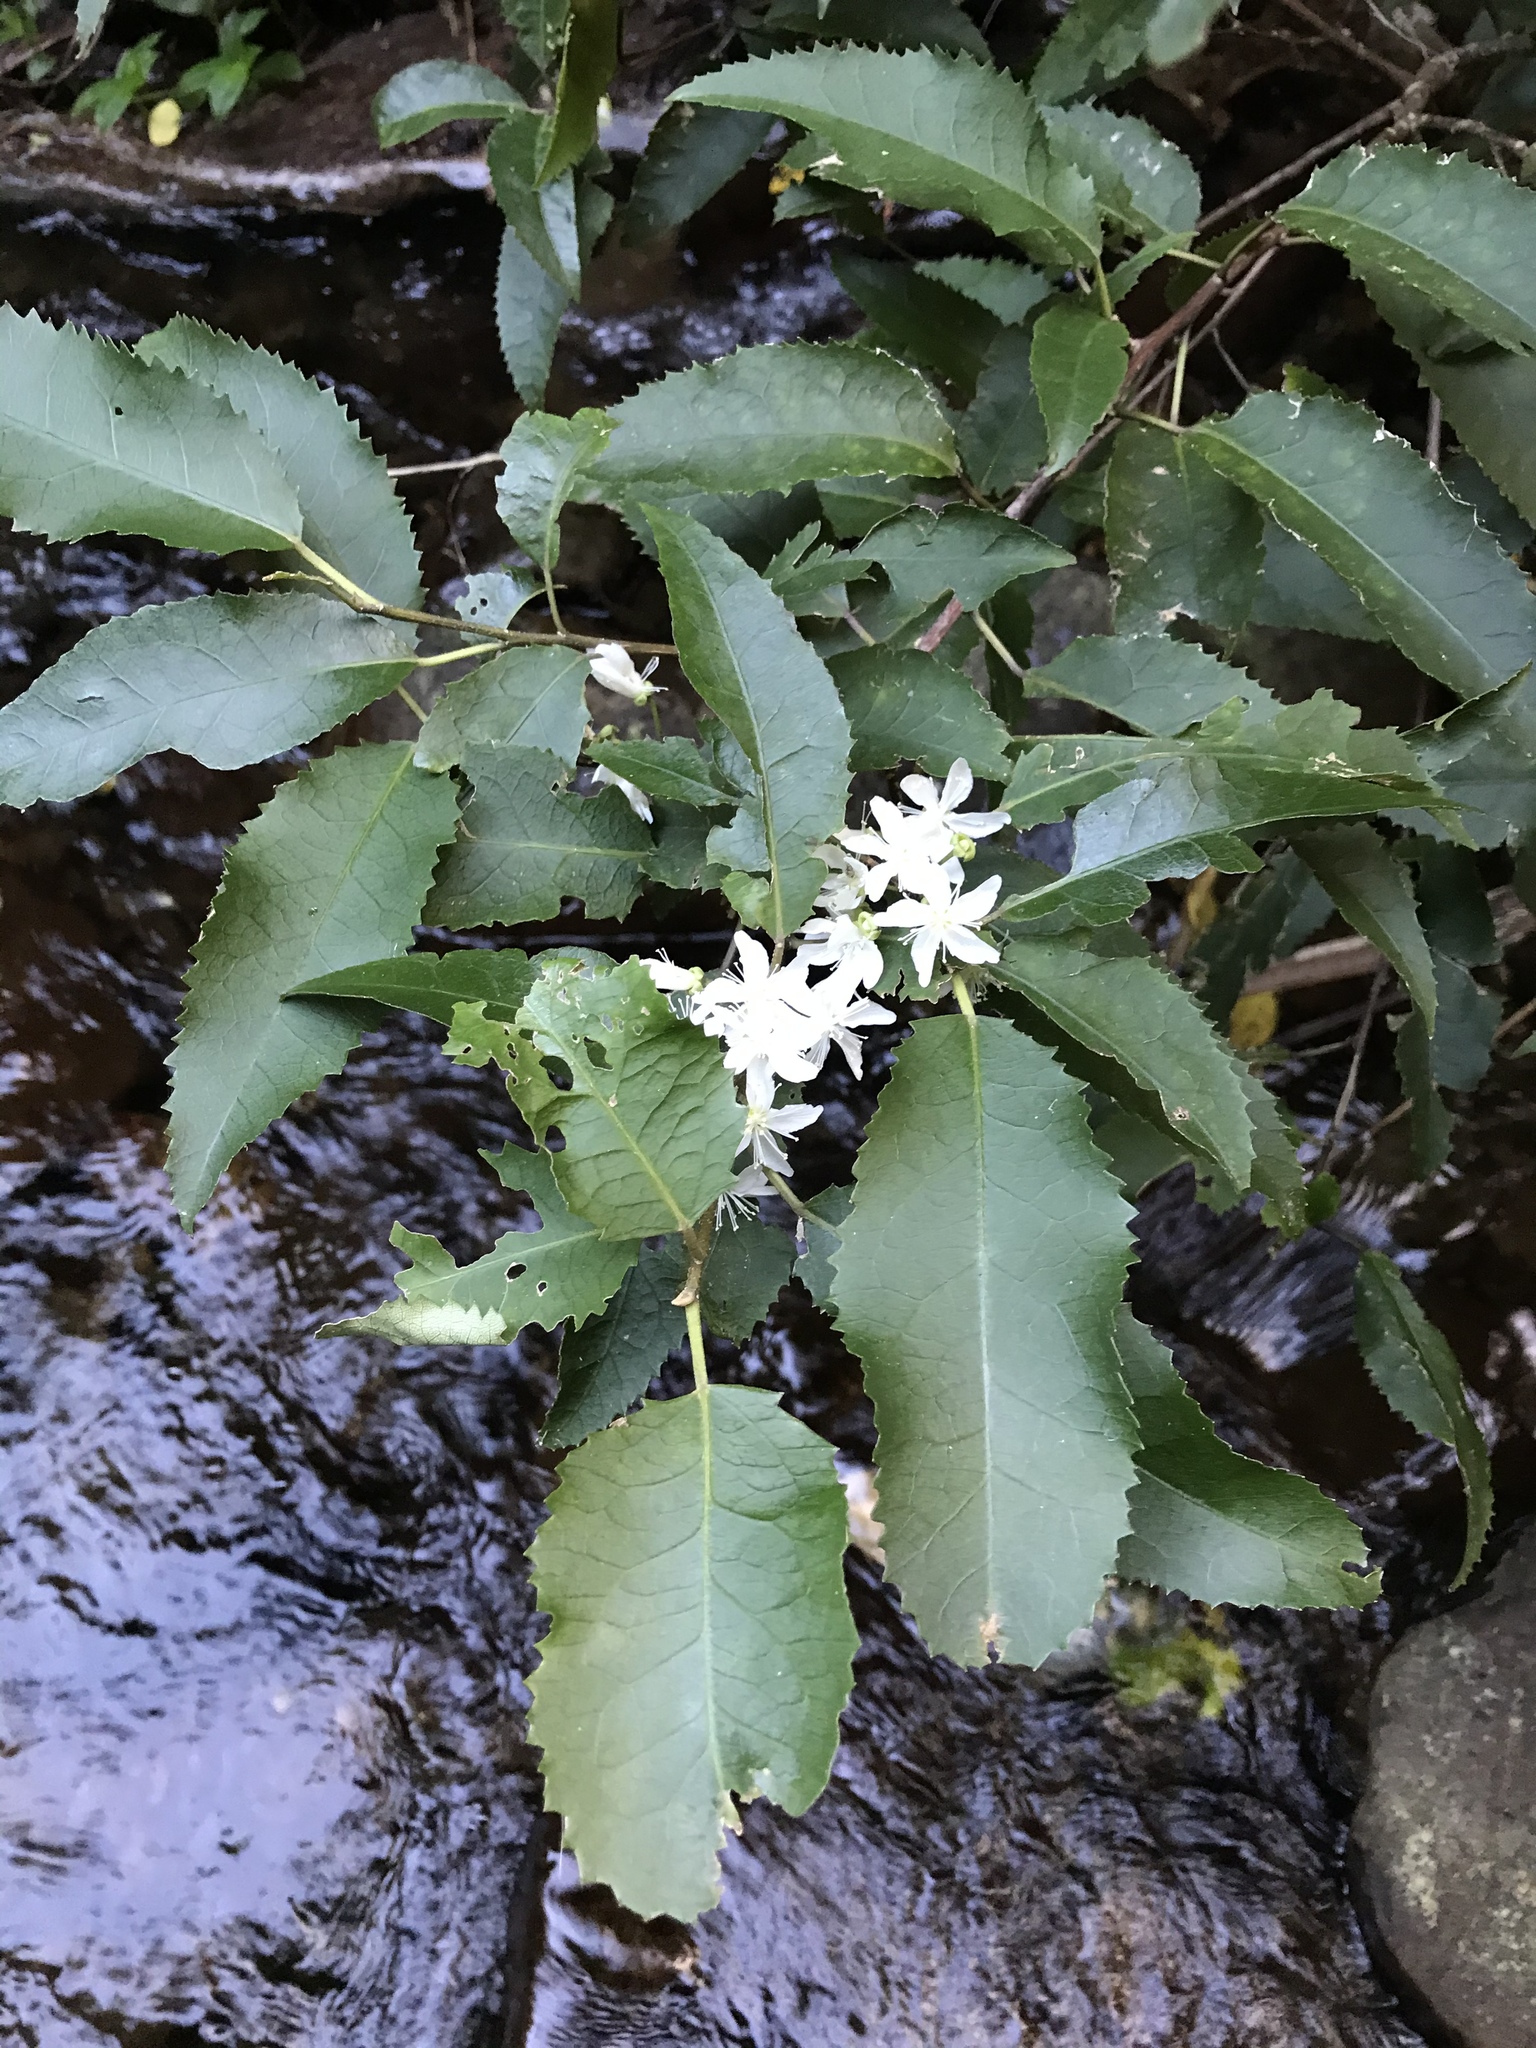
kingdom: Plantae
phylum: Tracheophyta
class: Magnoliopsida
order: Malvales
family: Malvaceae
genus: Hoheria
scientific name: Hoheria populnea
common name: Lacebark
